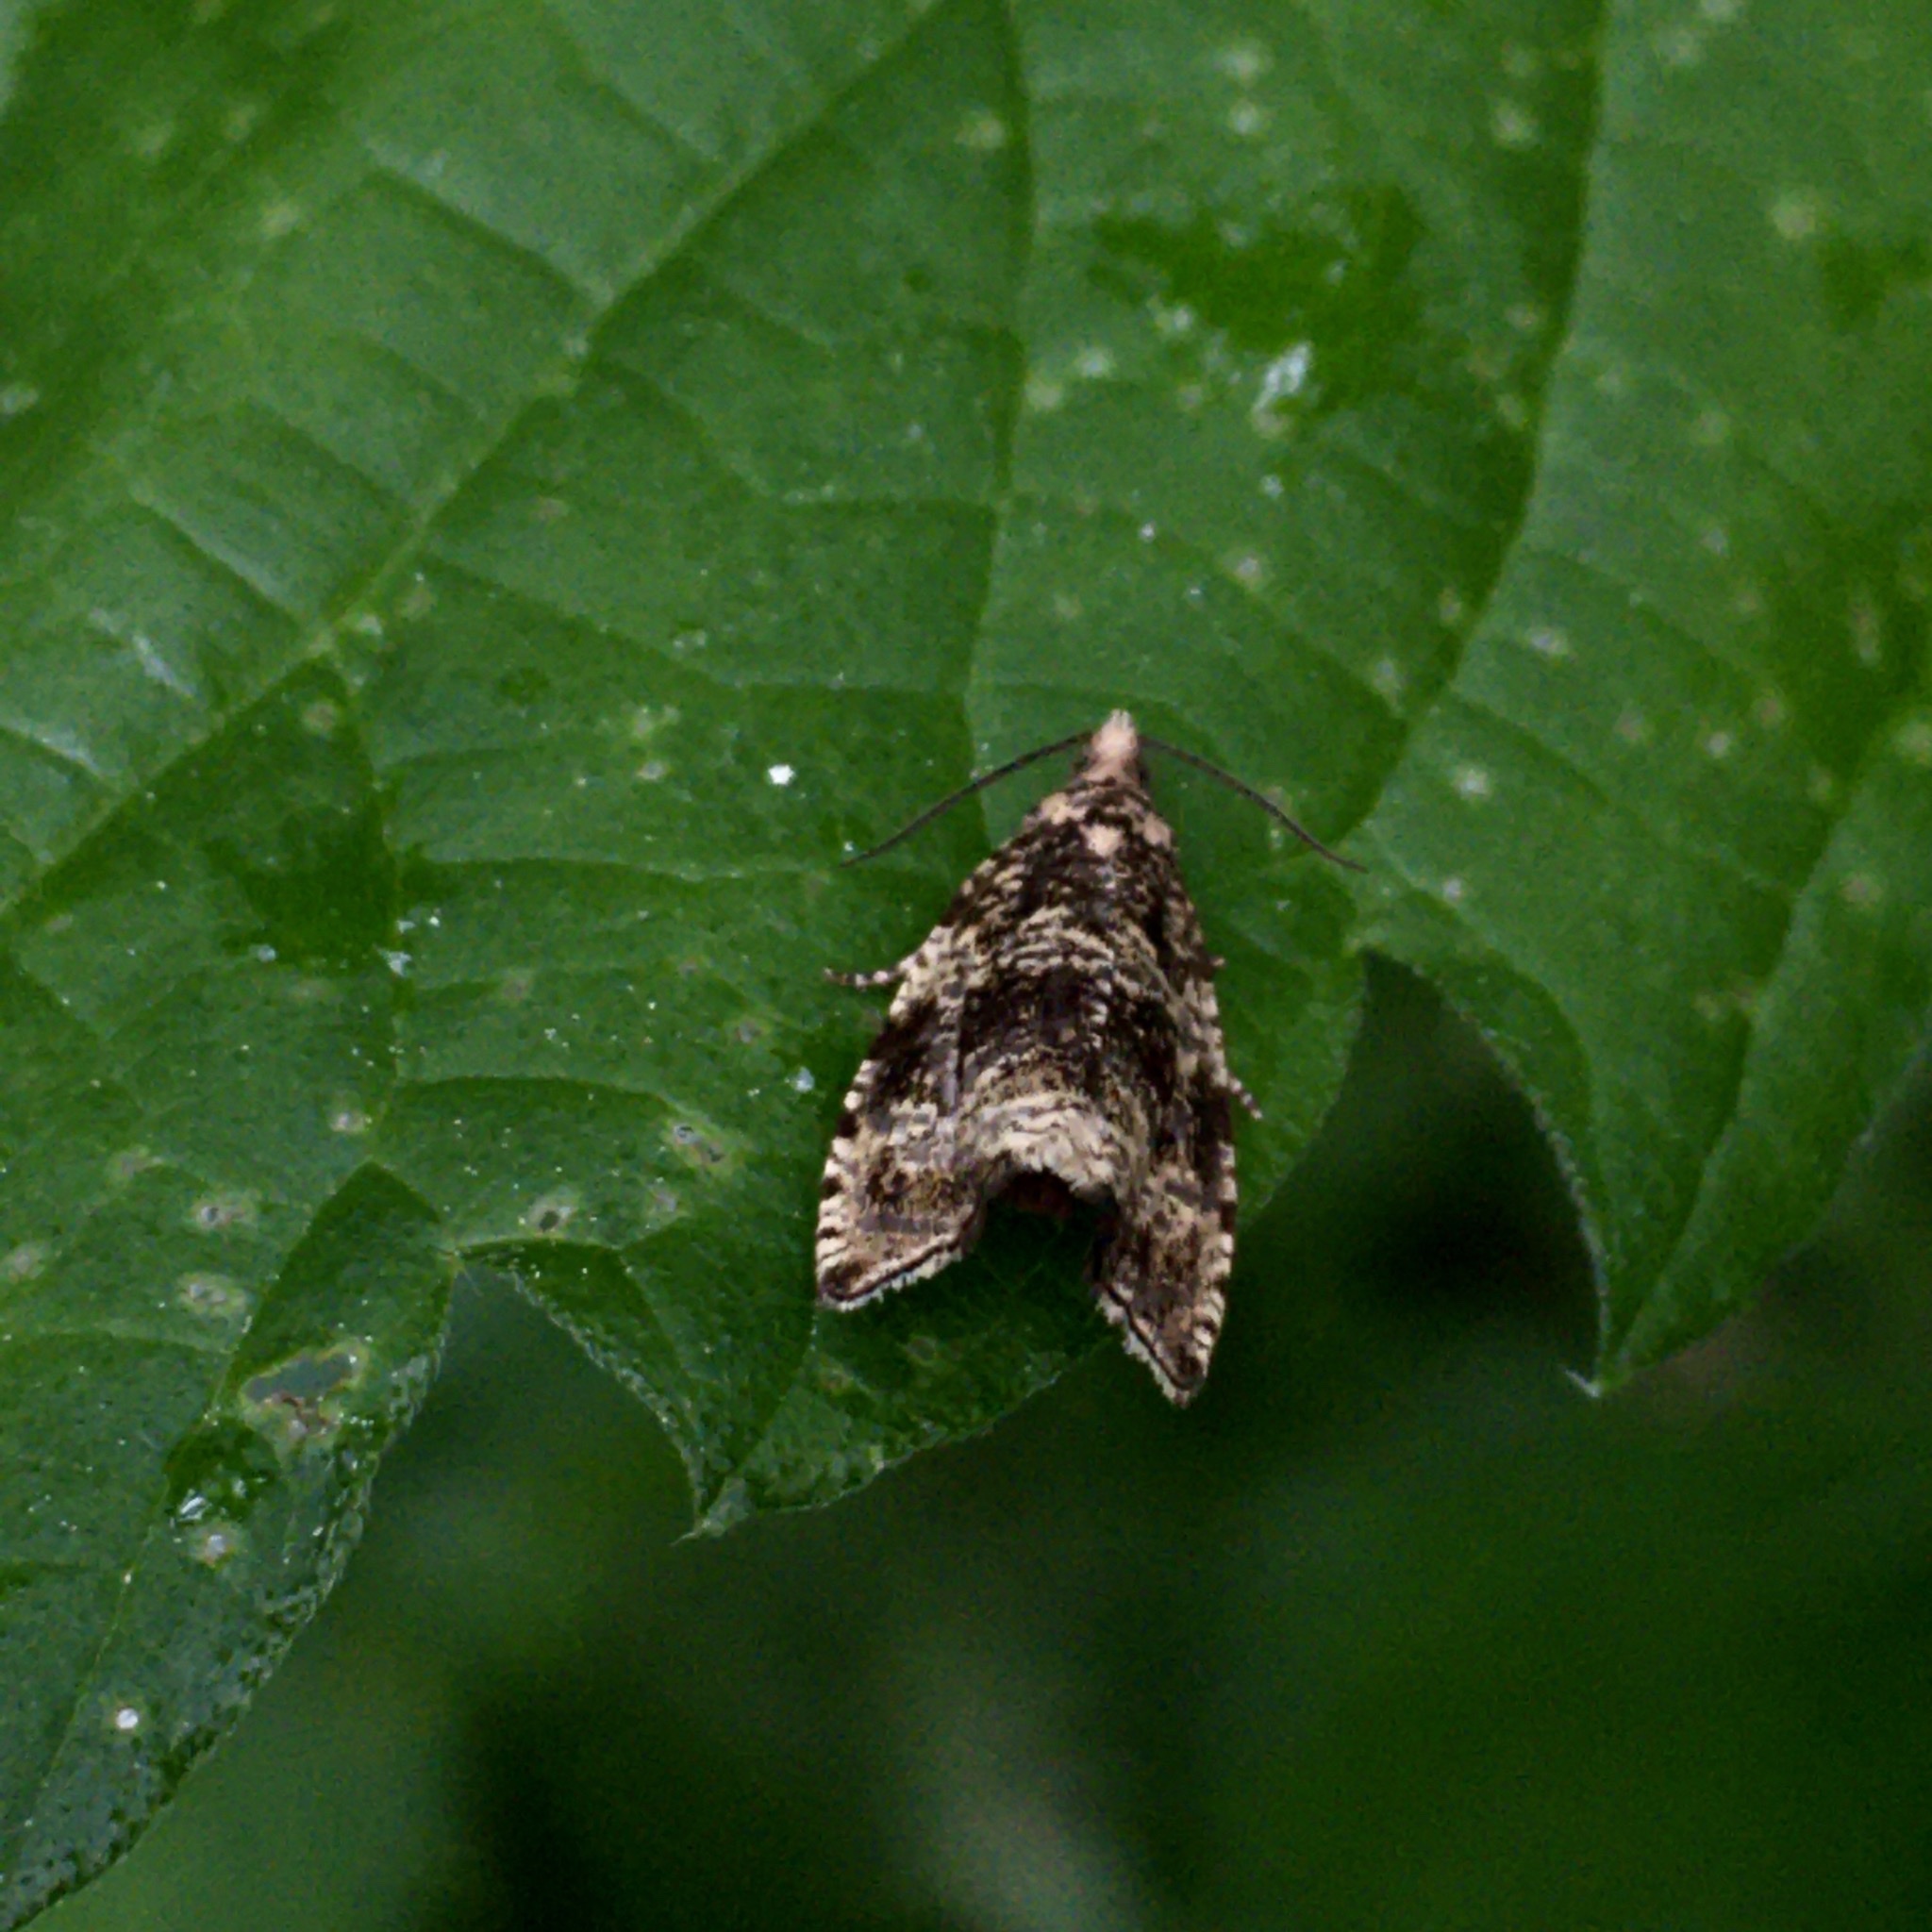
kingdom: Animalia
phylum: Arthropoda
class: Insecta
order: Lepidoptera
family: Tortricidae
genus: Syricoris
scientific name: Syricoris lacunana
